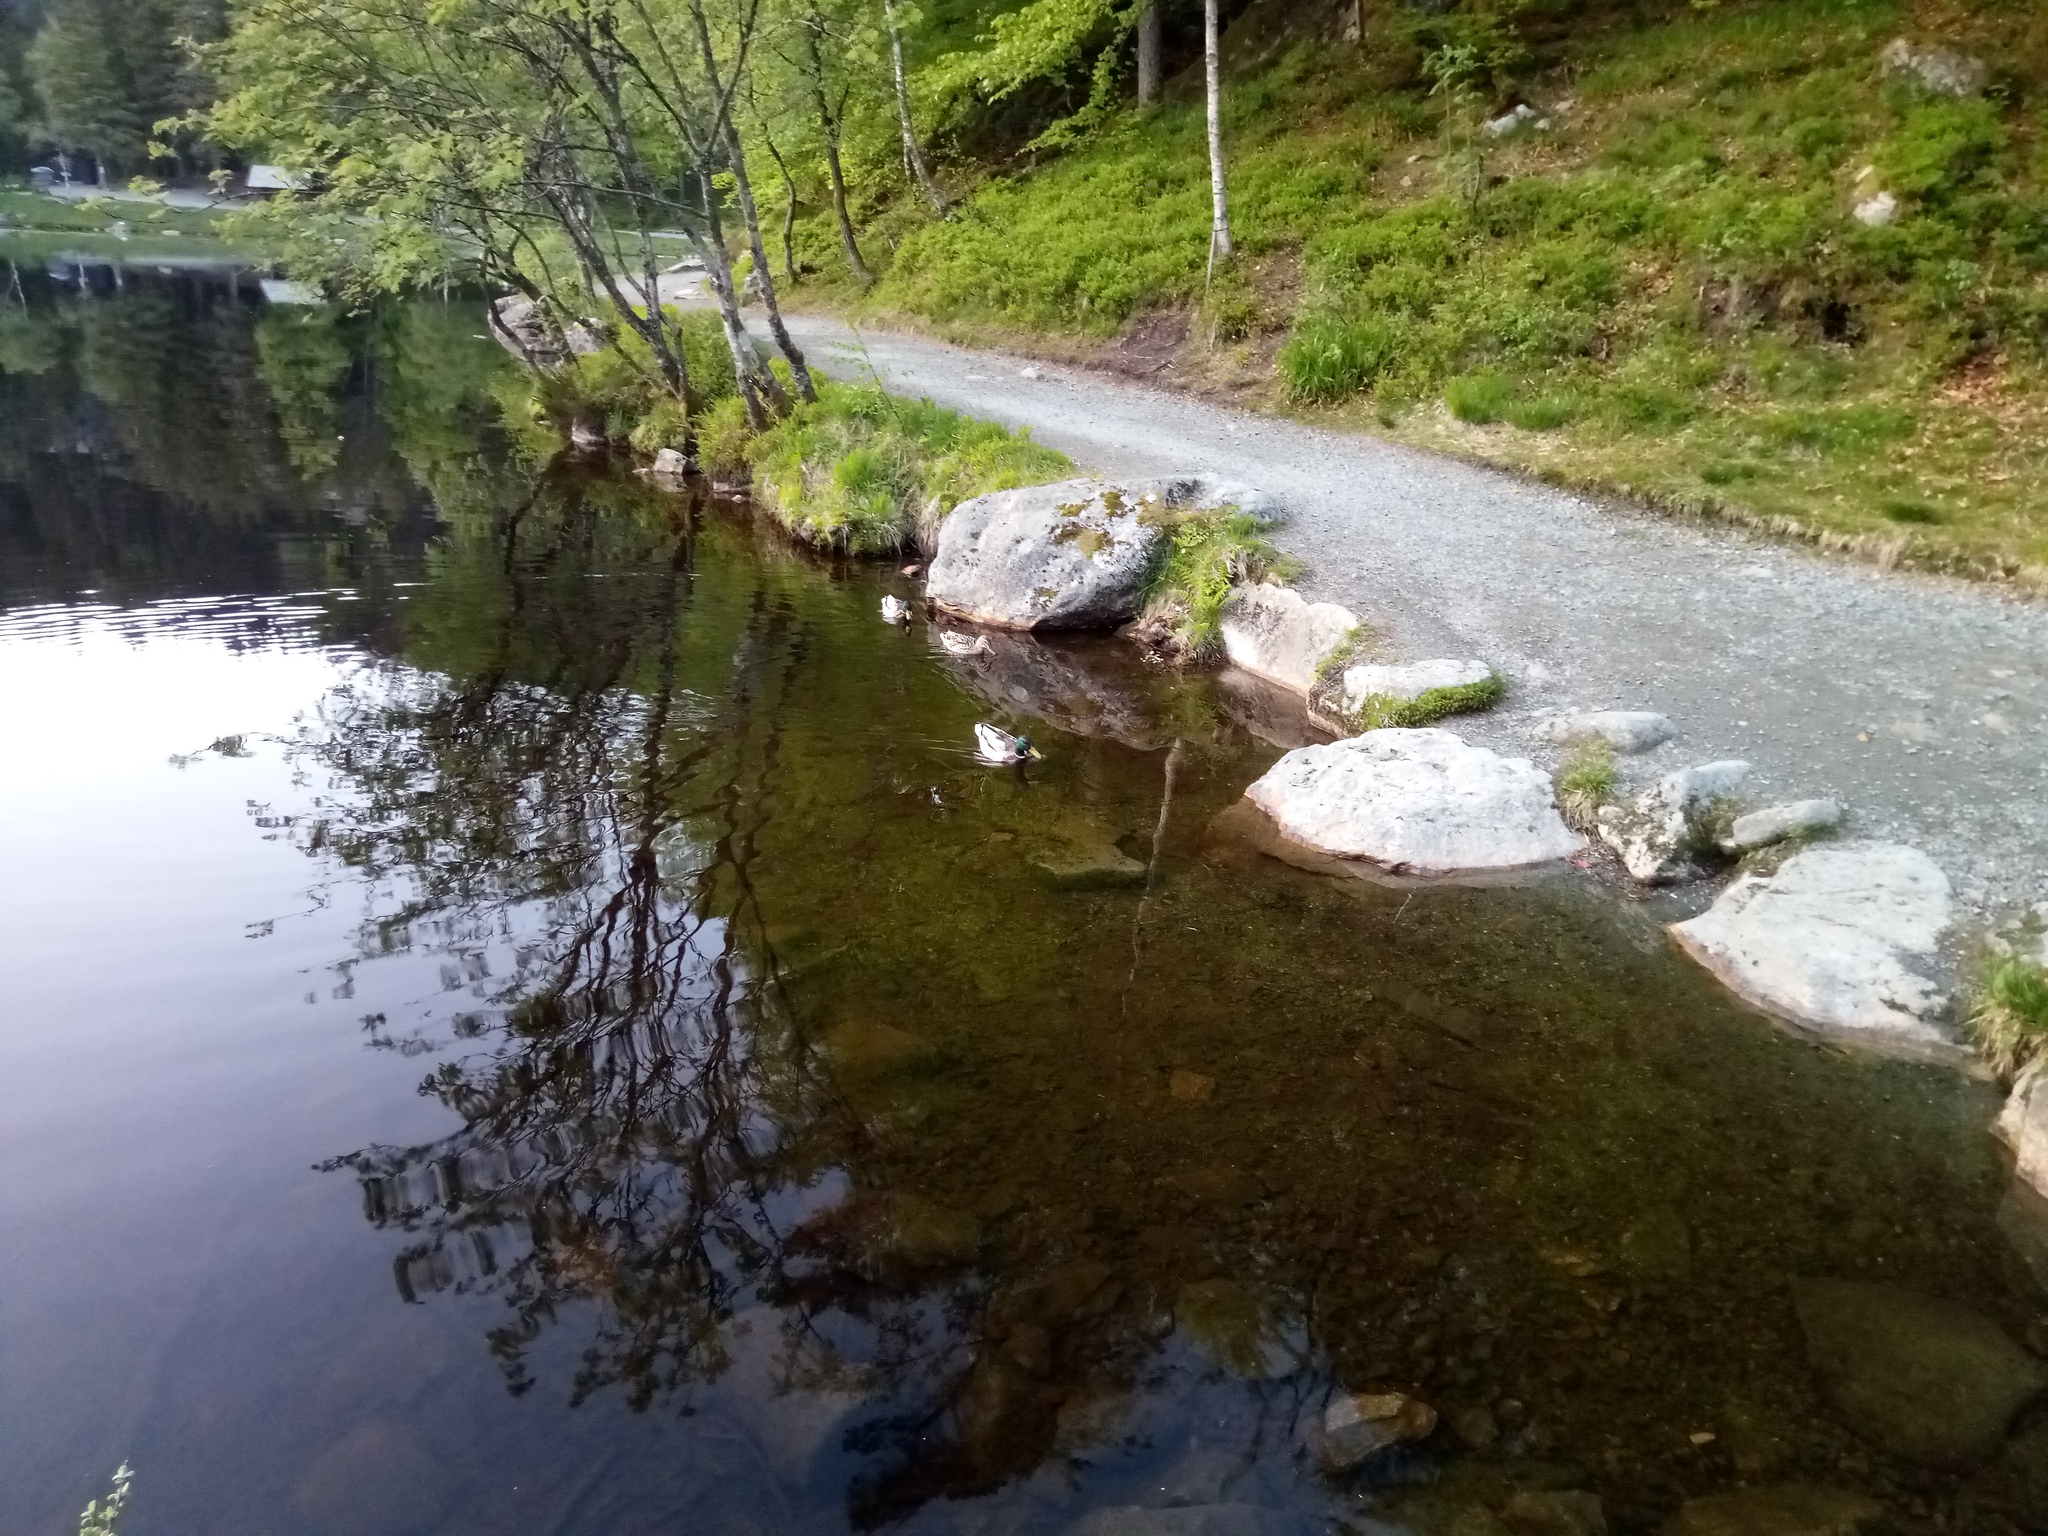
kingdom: Animalia
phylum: Chordata
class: Aves
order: Anseriformes
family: Anatidae
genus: Anas
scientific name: Anas platyrhynchos
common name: Mallard
